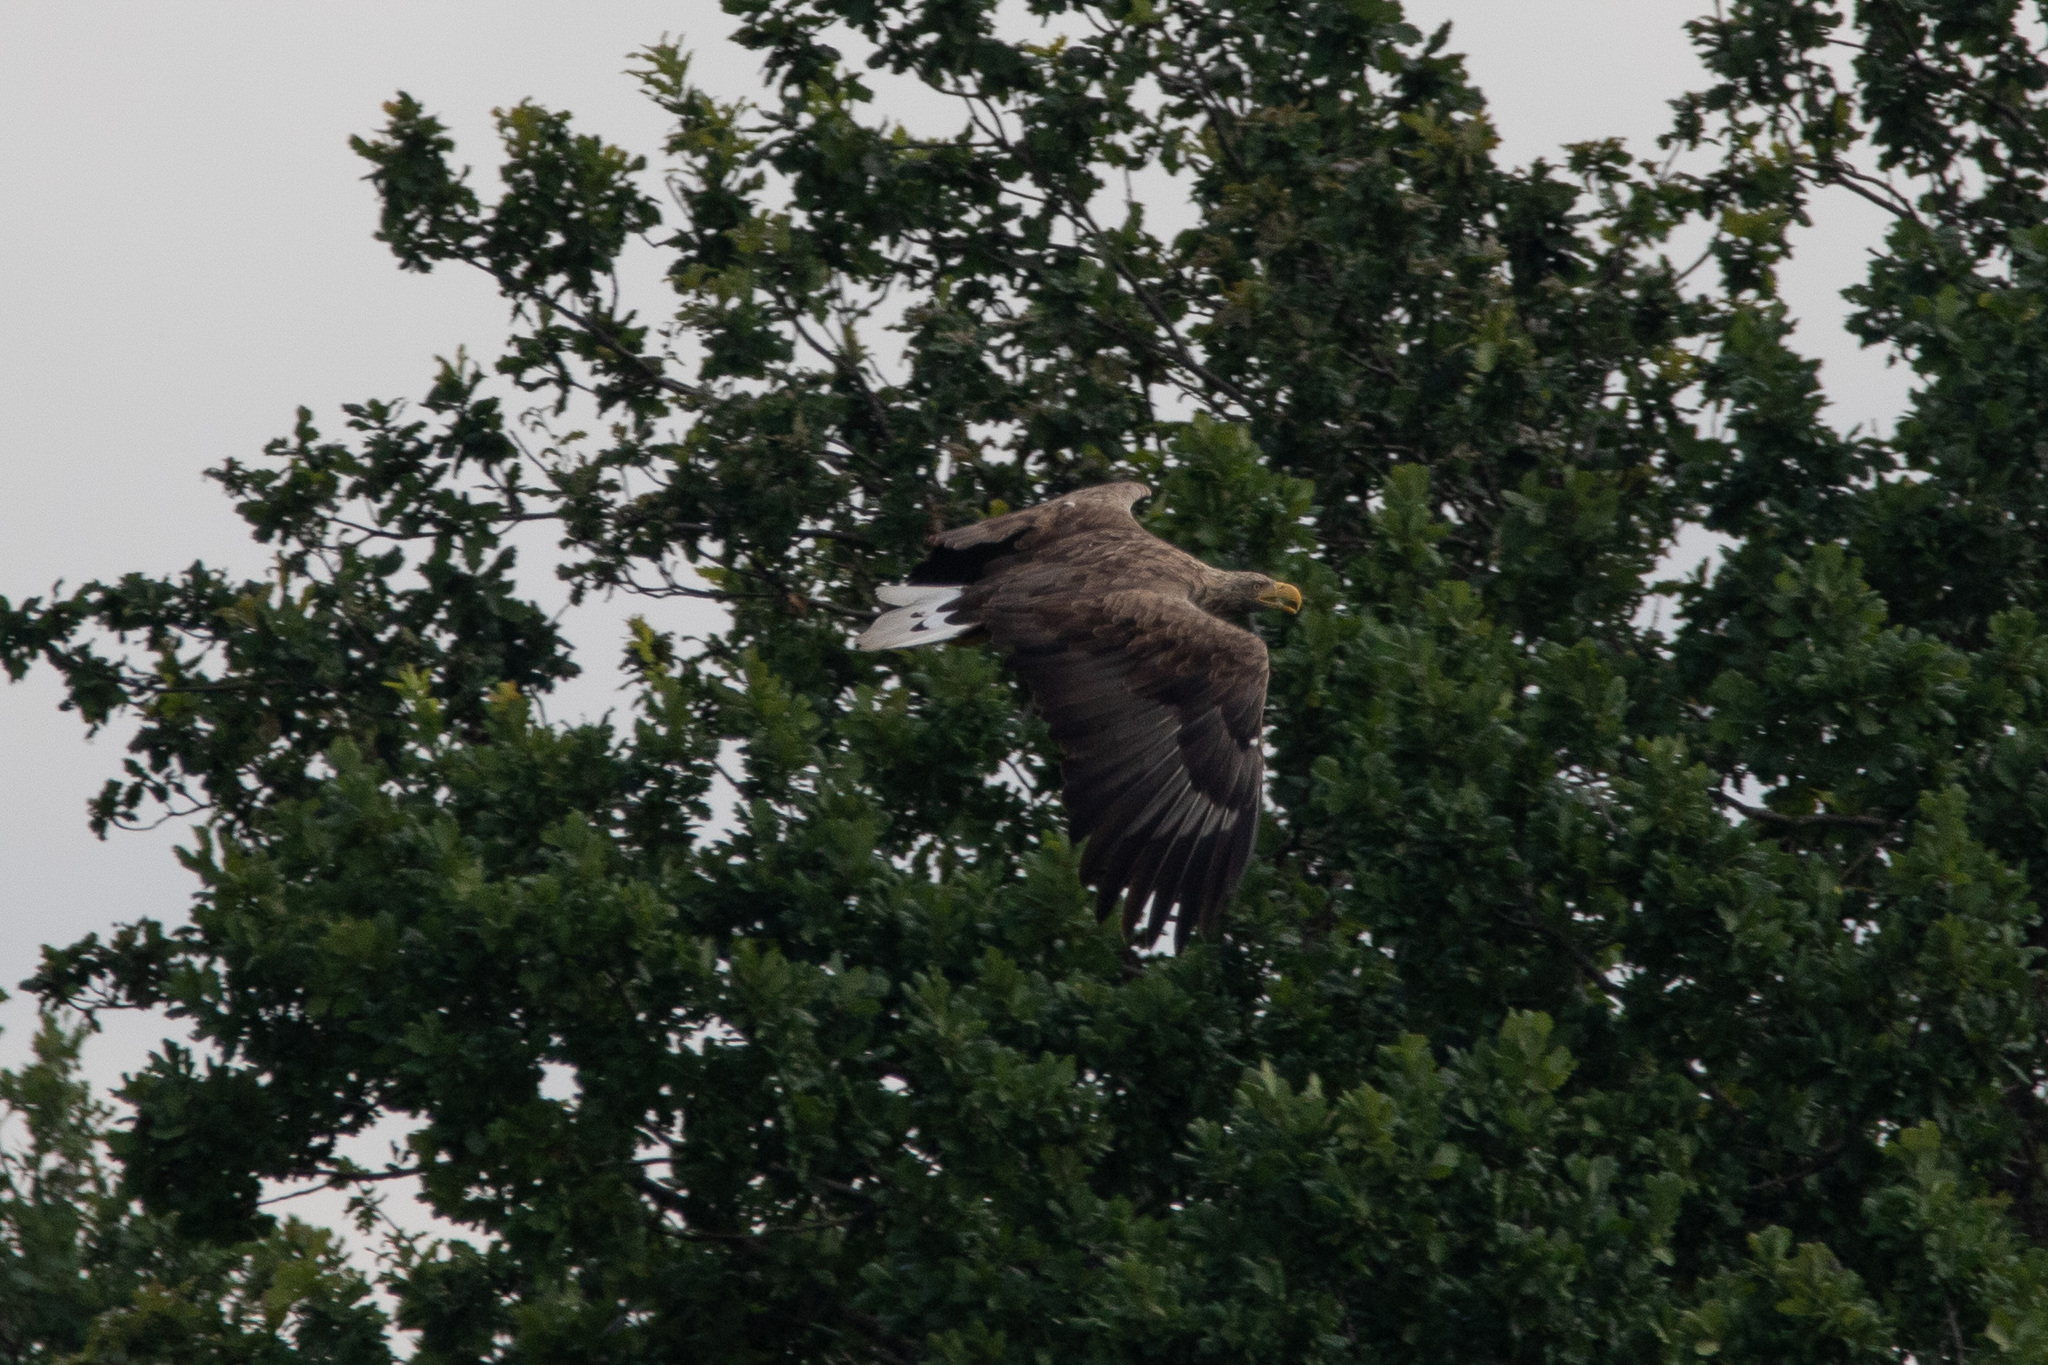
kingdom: Animalia
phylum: Chordata
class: Aves
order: Accipitriformes
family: Accipitridae
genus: Haliaeetus
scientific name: Haliaeetus albicilla
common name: White-tailed eagle
